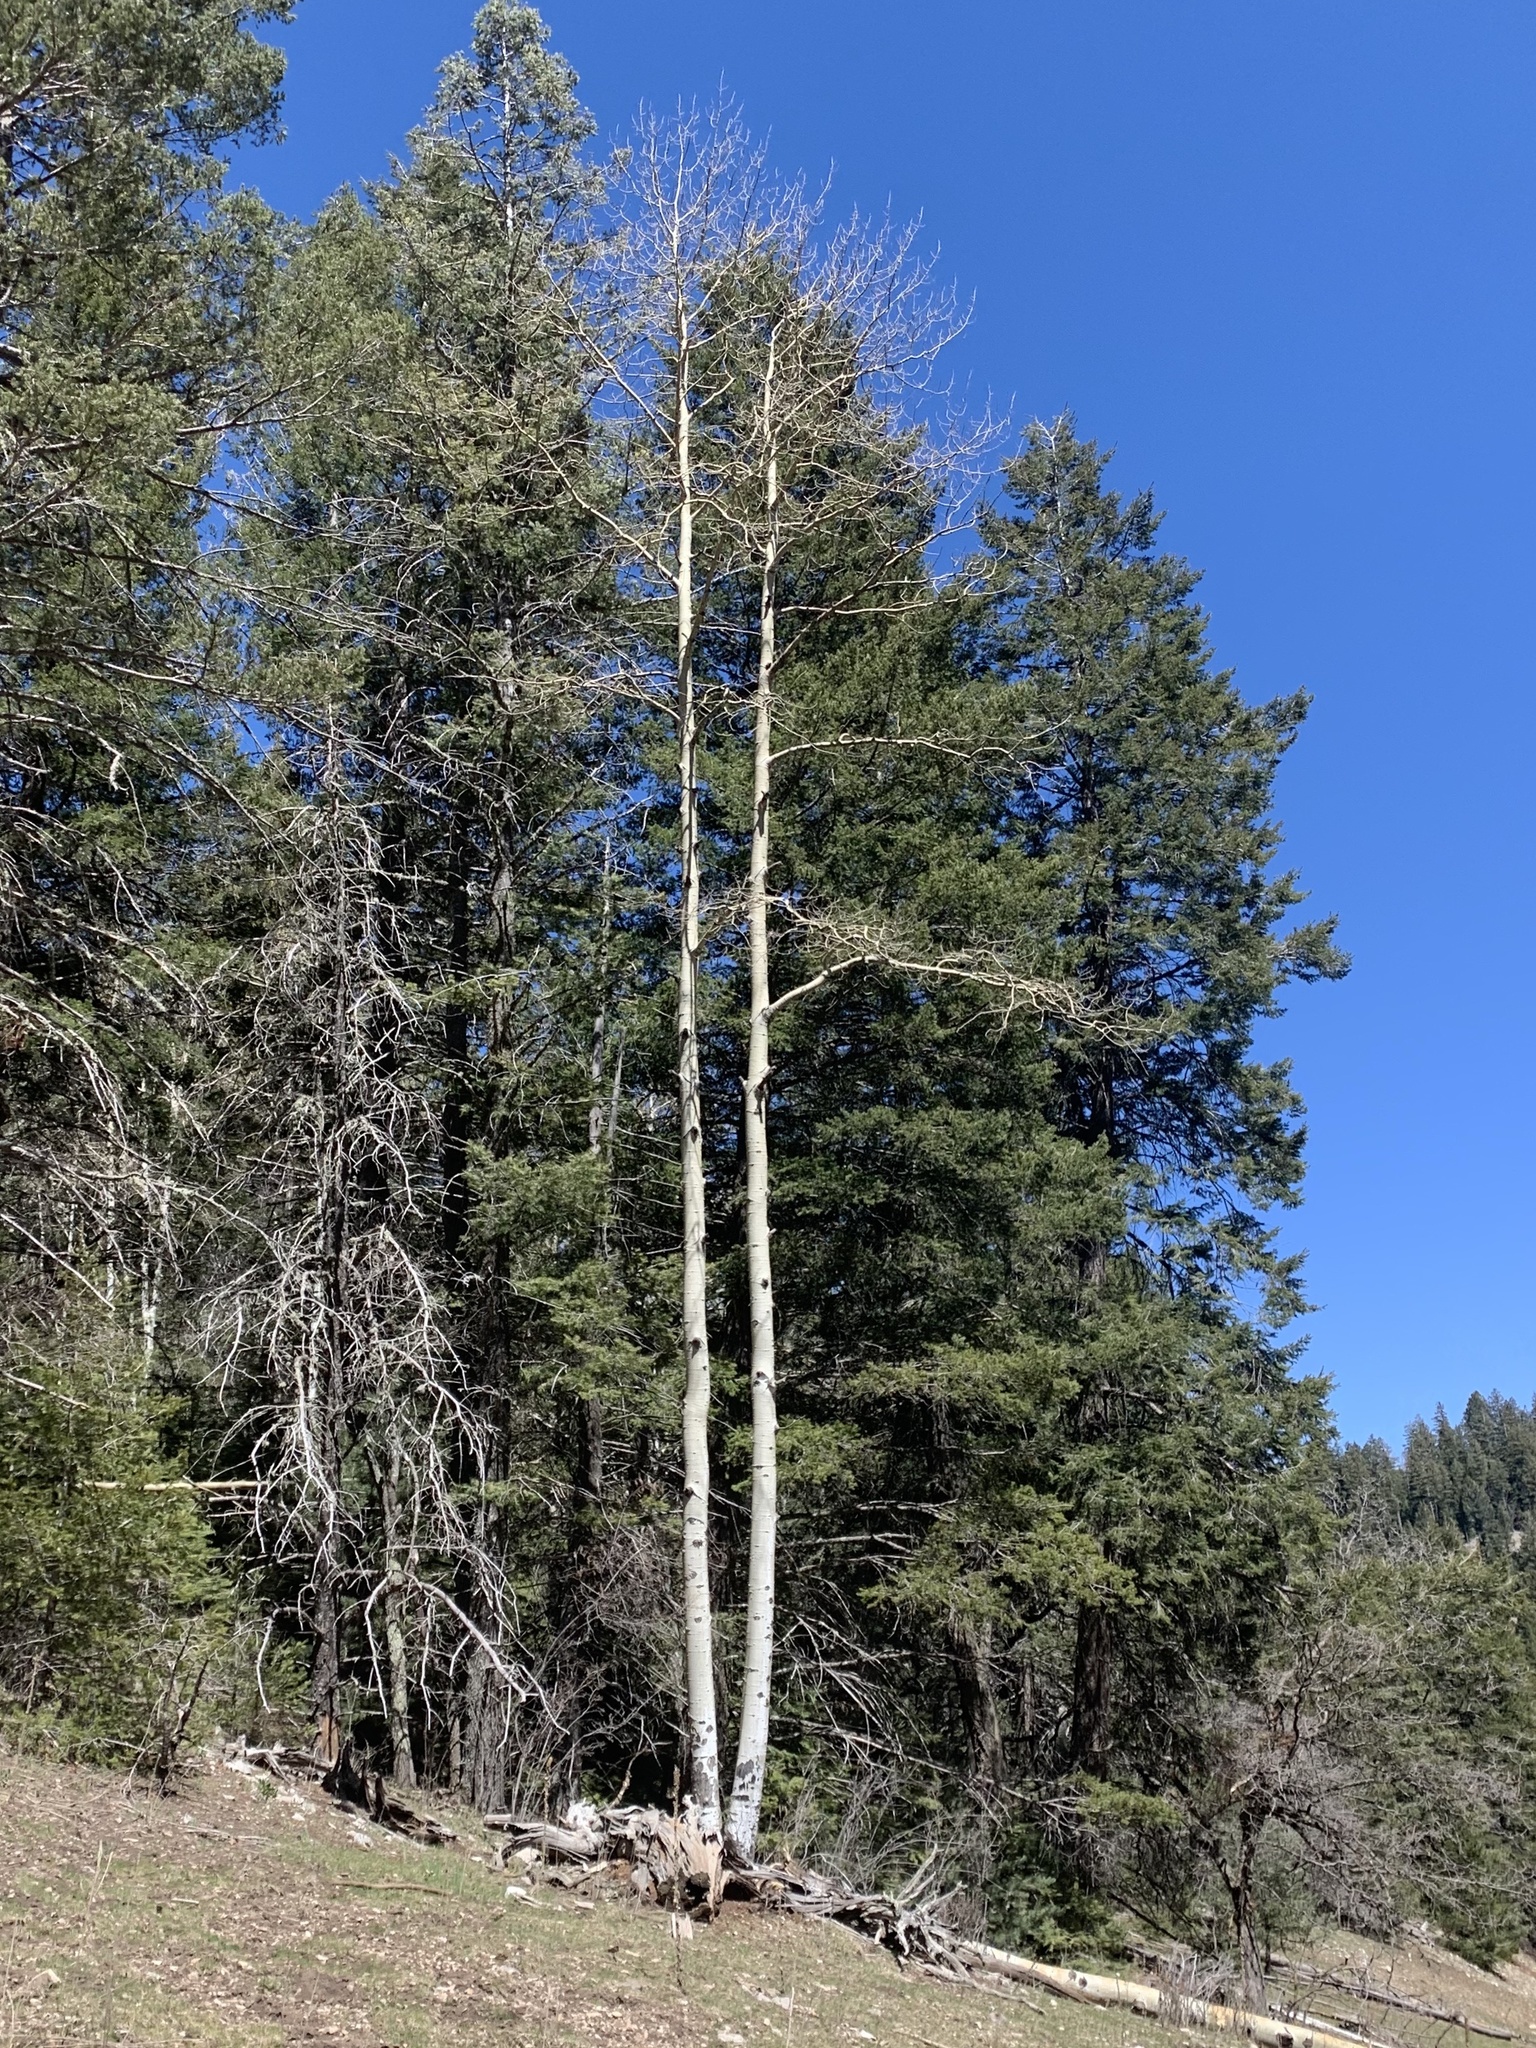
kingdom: Plantae
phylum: Tracheophyta
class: Magnoliopsida
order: Malpighiales
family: Salicaceae
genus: Populus
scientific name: Populus tremuloides
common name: Quaking aspen
